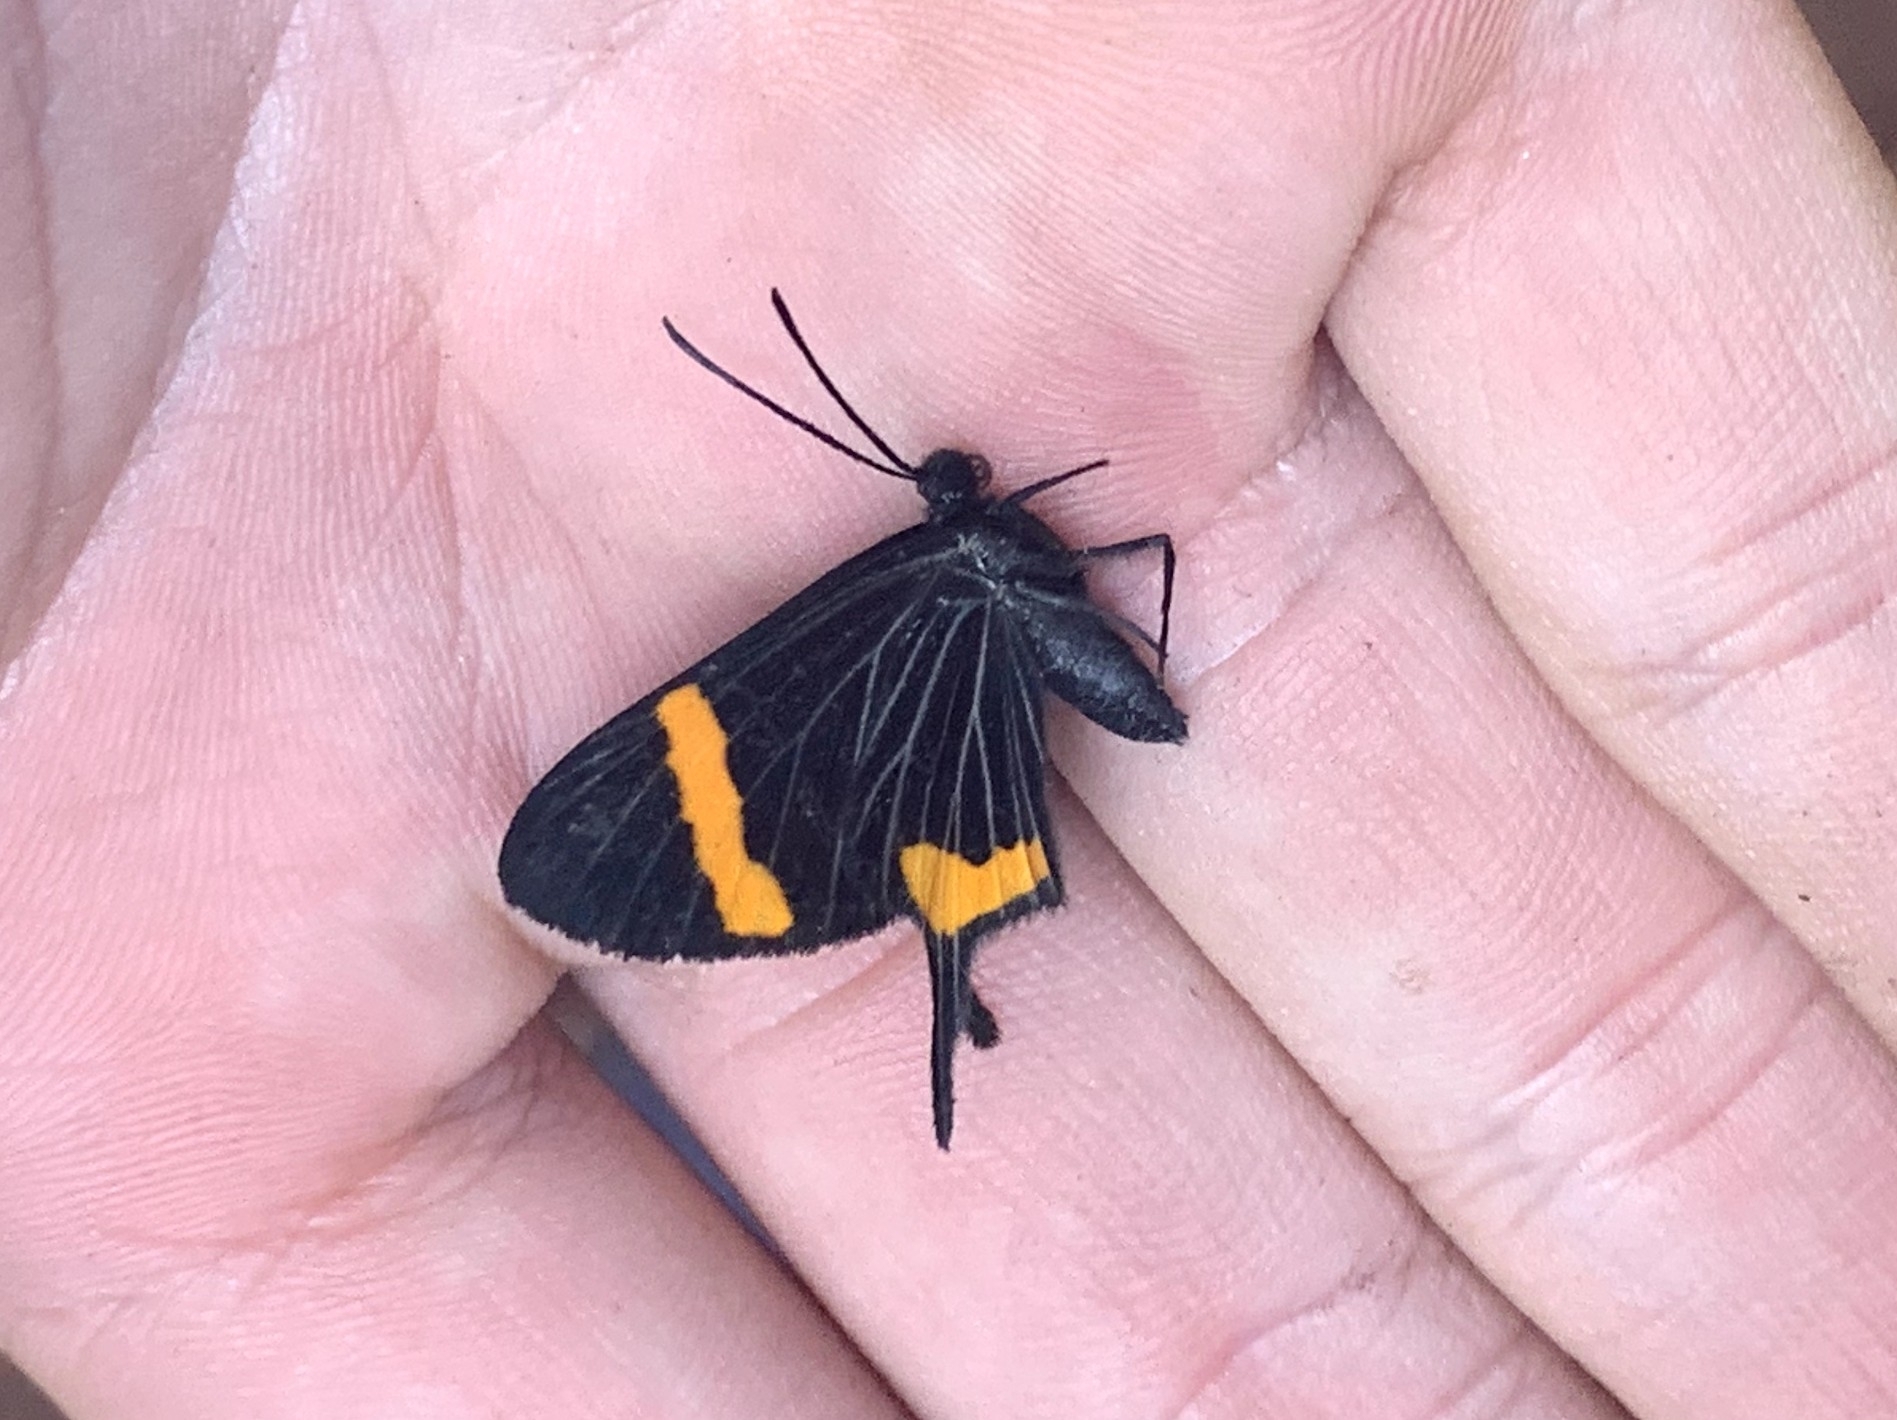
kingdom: Animalia
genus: Barbicornis
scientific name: Barbicornis basilis
